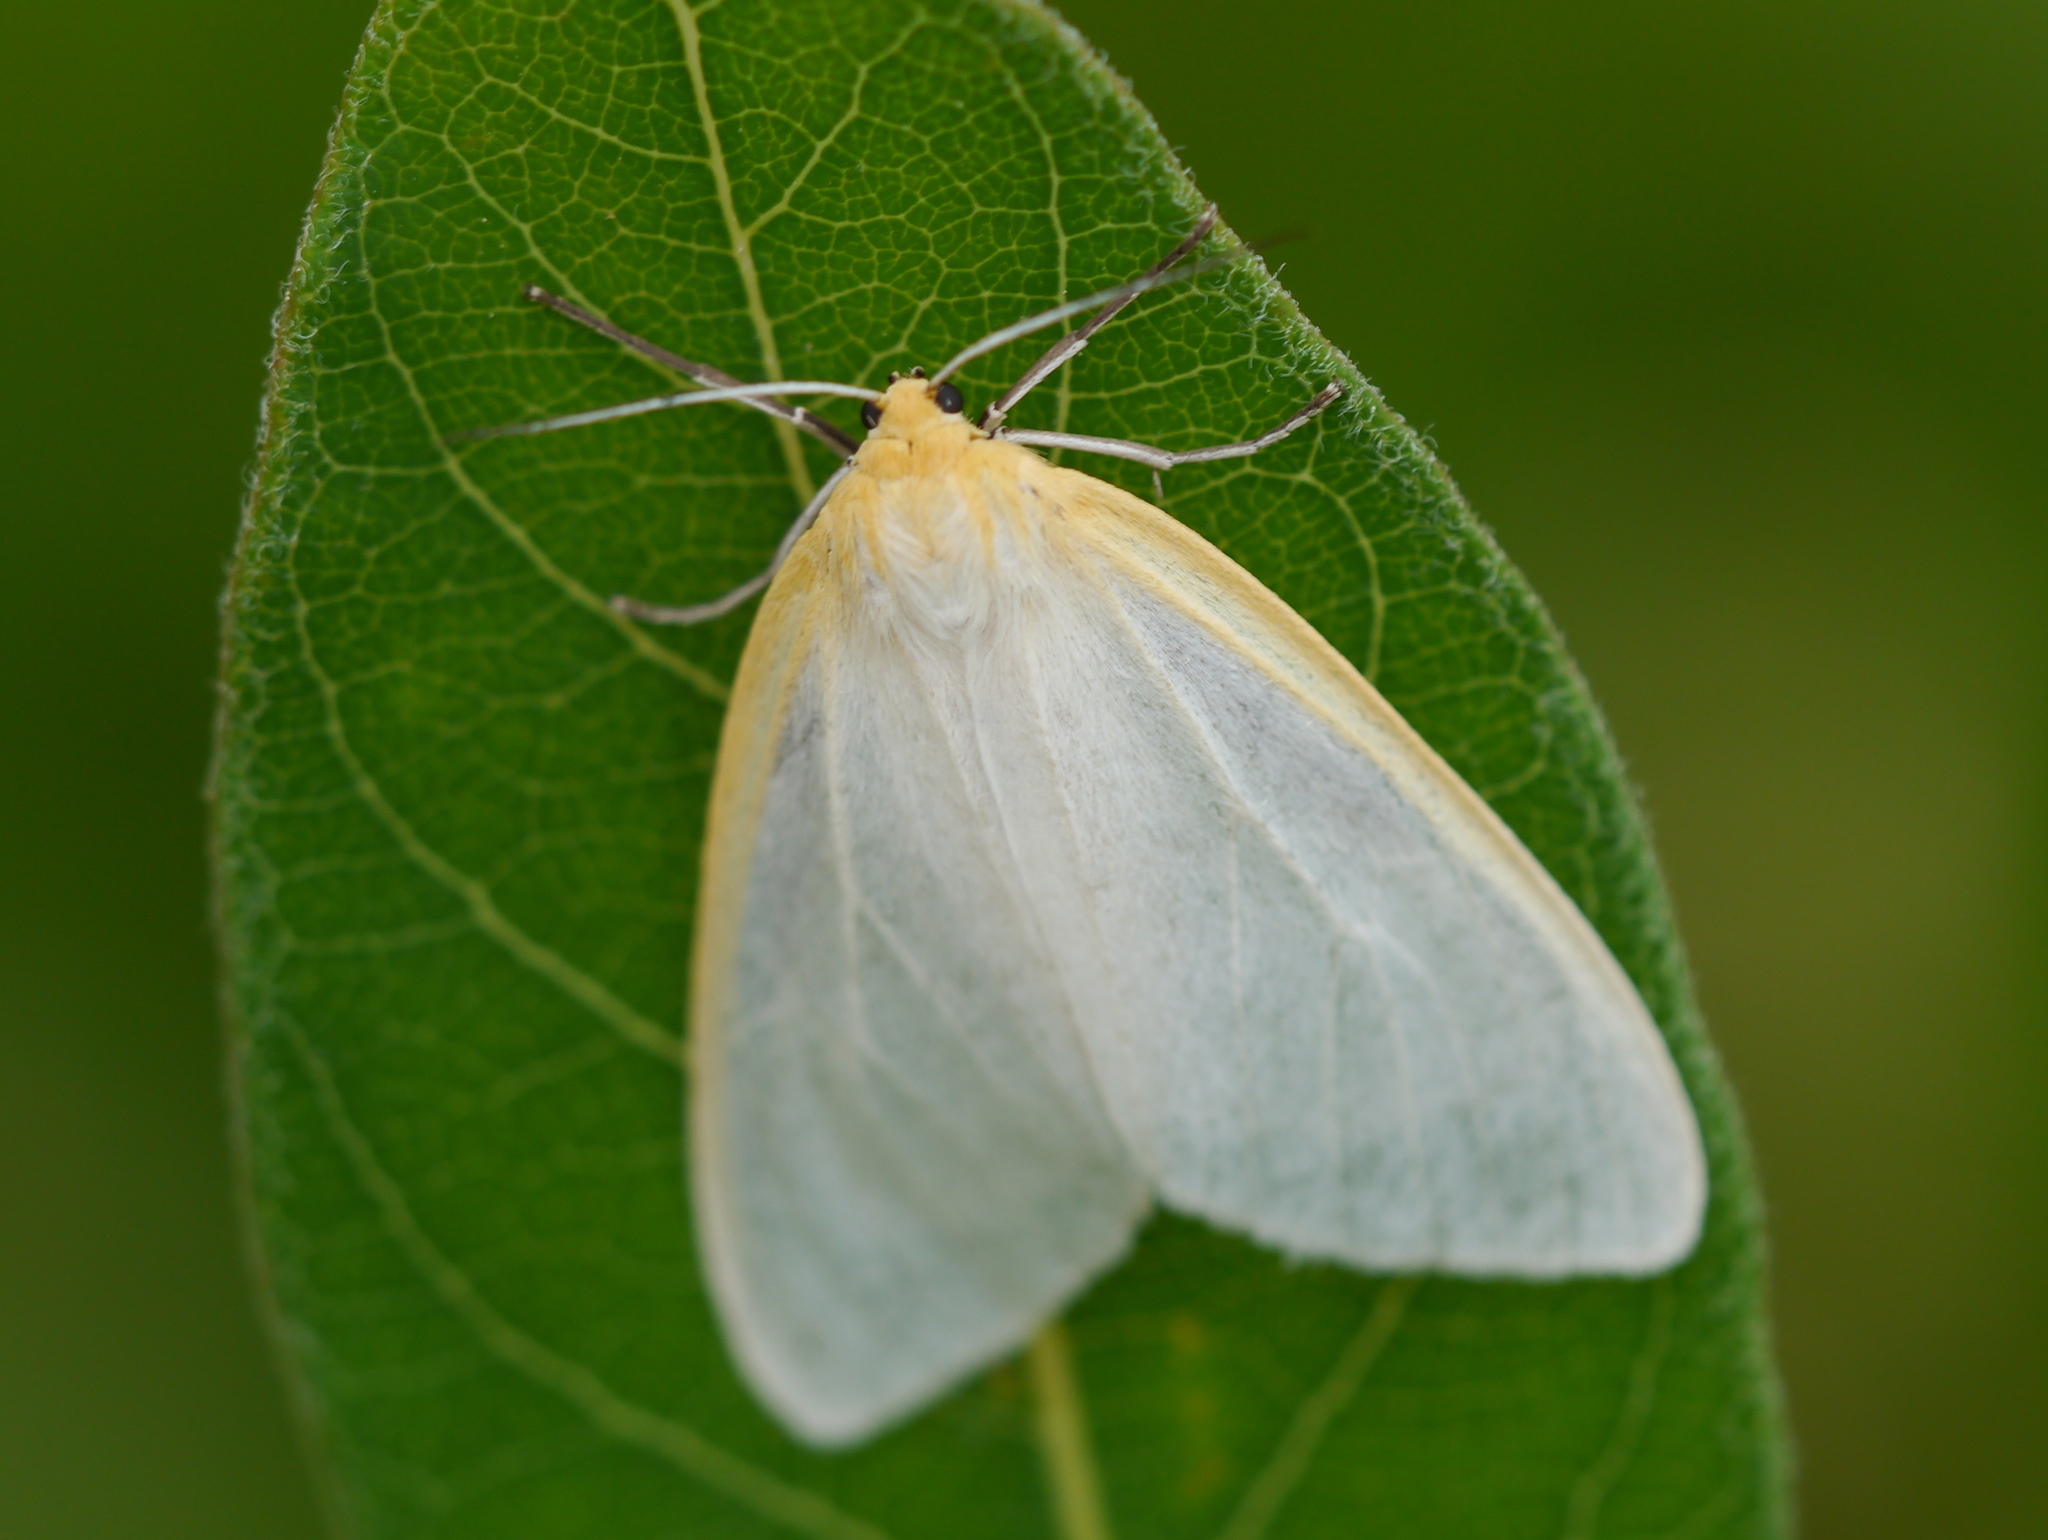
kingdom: Animalia
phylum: Arthropoda
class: Insecta
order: Lepidoptera
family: Erebidae
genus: Cycnia
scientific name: Cycnia tenera
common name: Delicate cycnia moth
